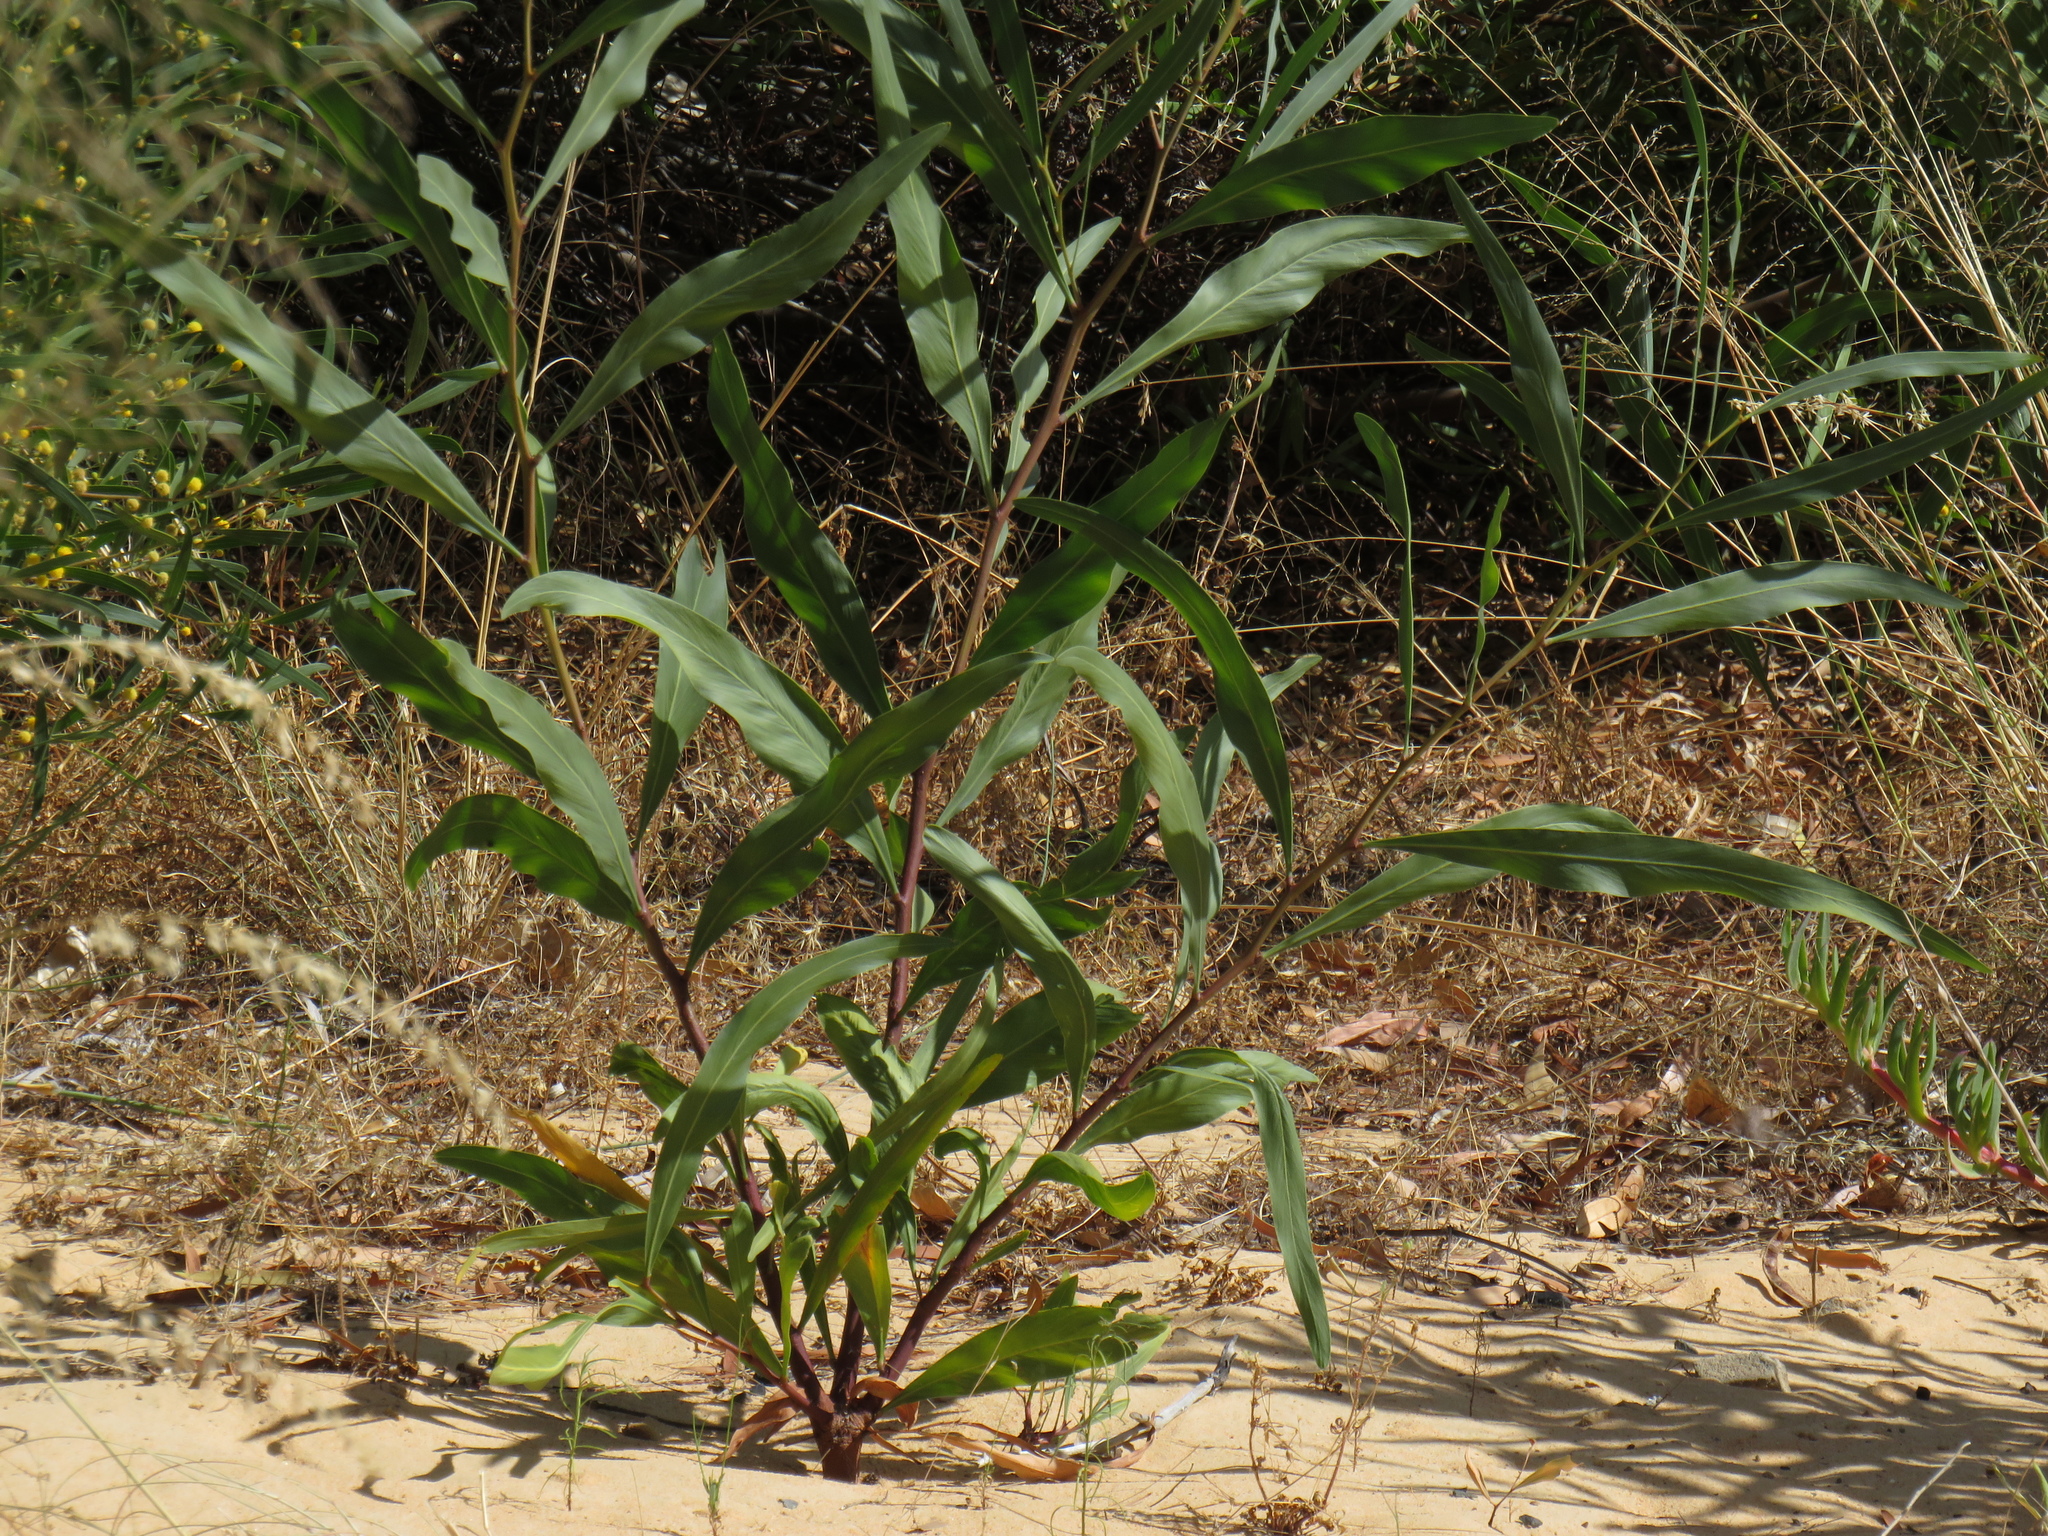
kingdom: Plantae
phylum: Tracheophyta
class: Magnoliopsida
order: Fabales
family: Fabaceae
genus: Acacia
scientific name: Acacia saligna
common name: Orange wattle
